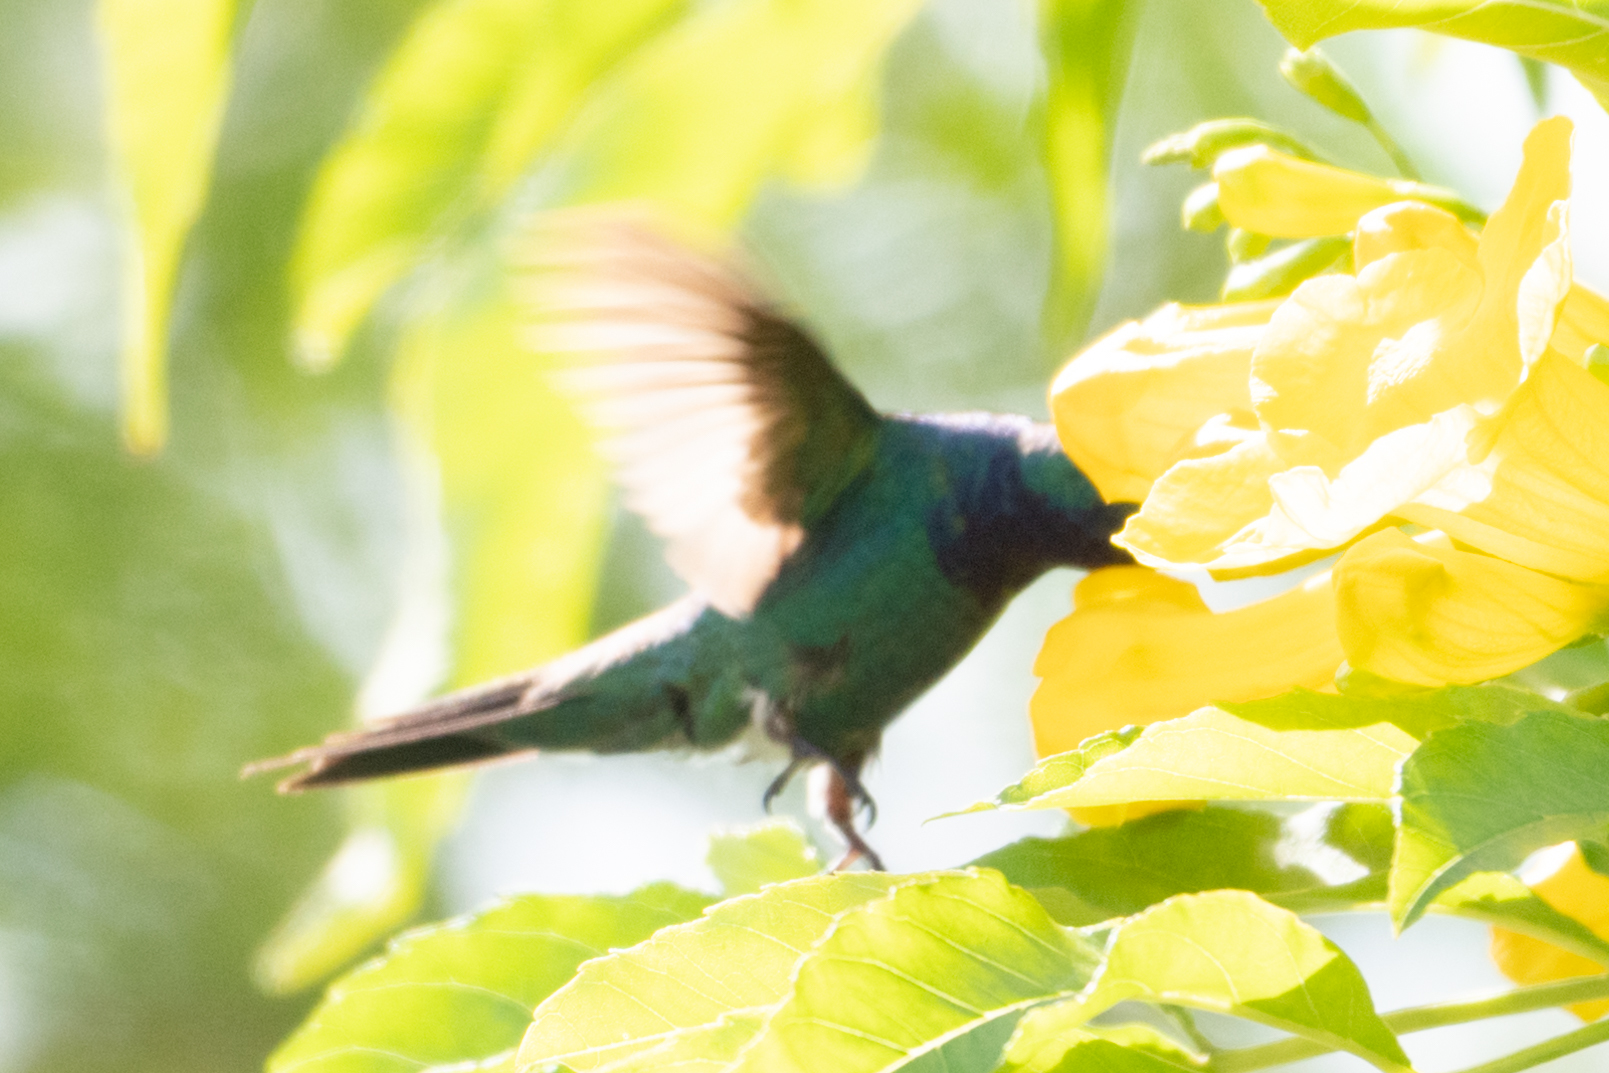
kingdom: Animalia
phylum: Chordata
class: Aves
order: Apodiformes
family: Trochilidae
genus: Chrysuronia
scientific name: Chrysuronia coeruleogularis
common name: Sapphire-throated hummingbird
